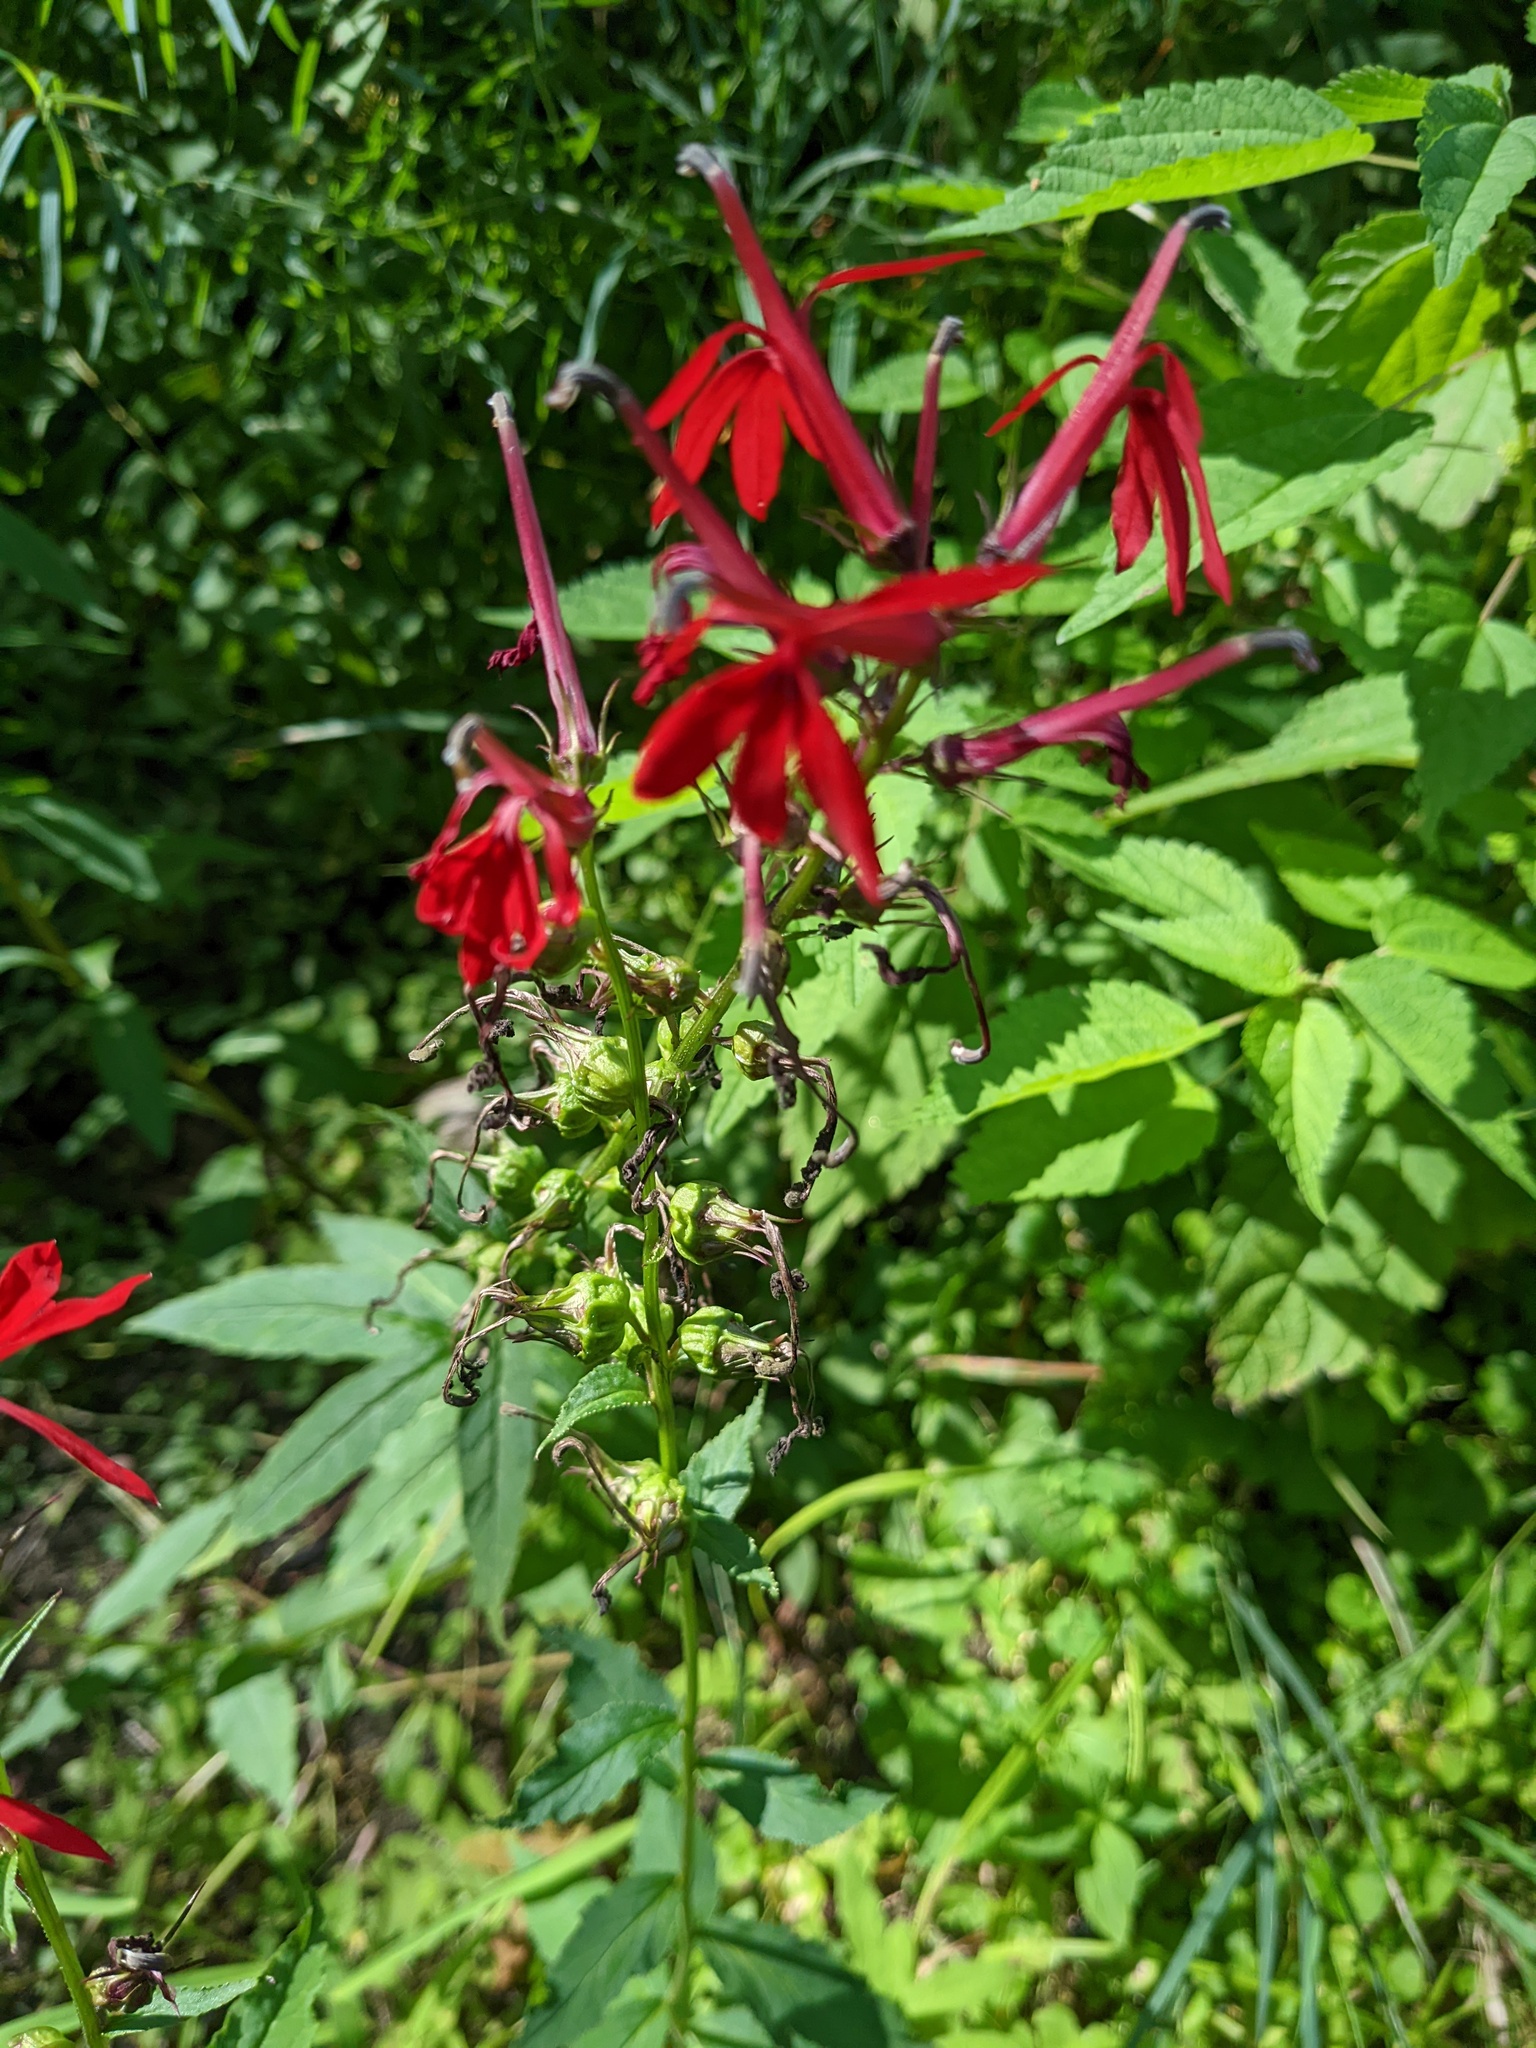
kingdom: Plantae
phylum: Tracheophyta
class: Magnoliopsida
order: Asterales
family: Campanulaceae
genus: Lobelia
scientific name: Lobelia cardinalis
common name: Cardinal flower
